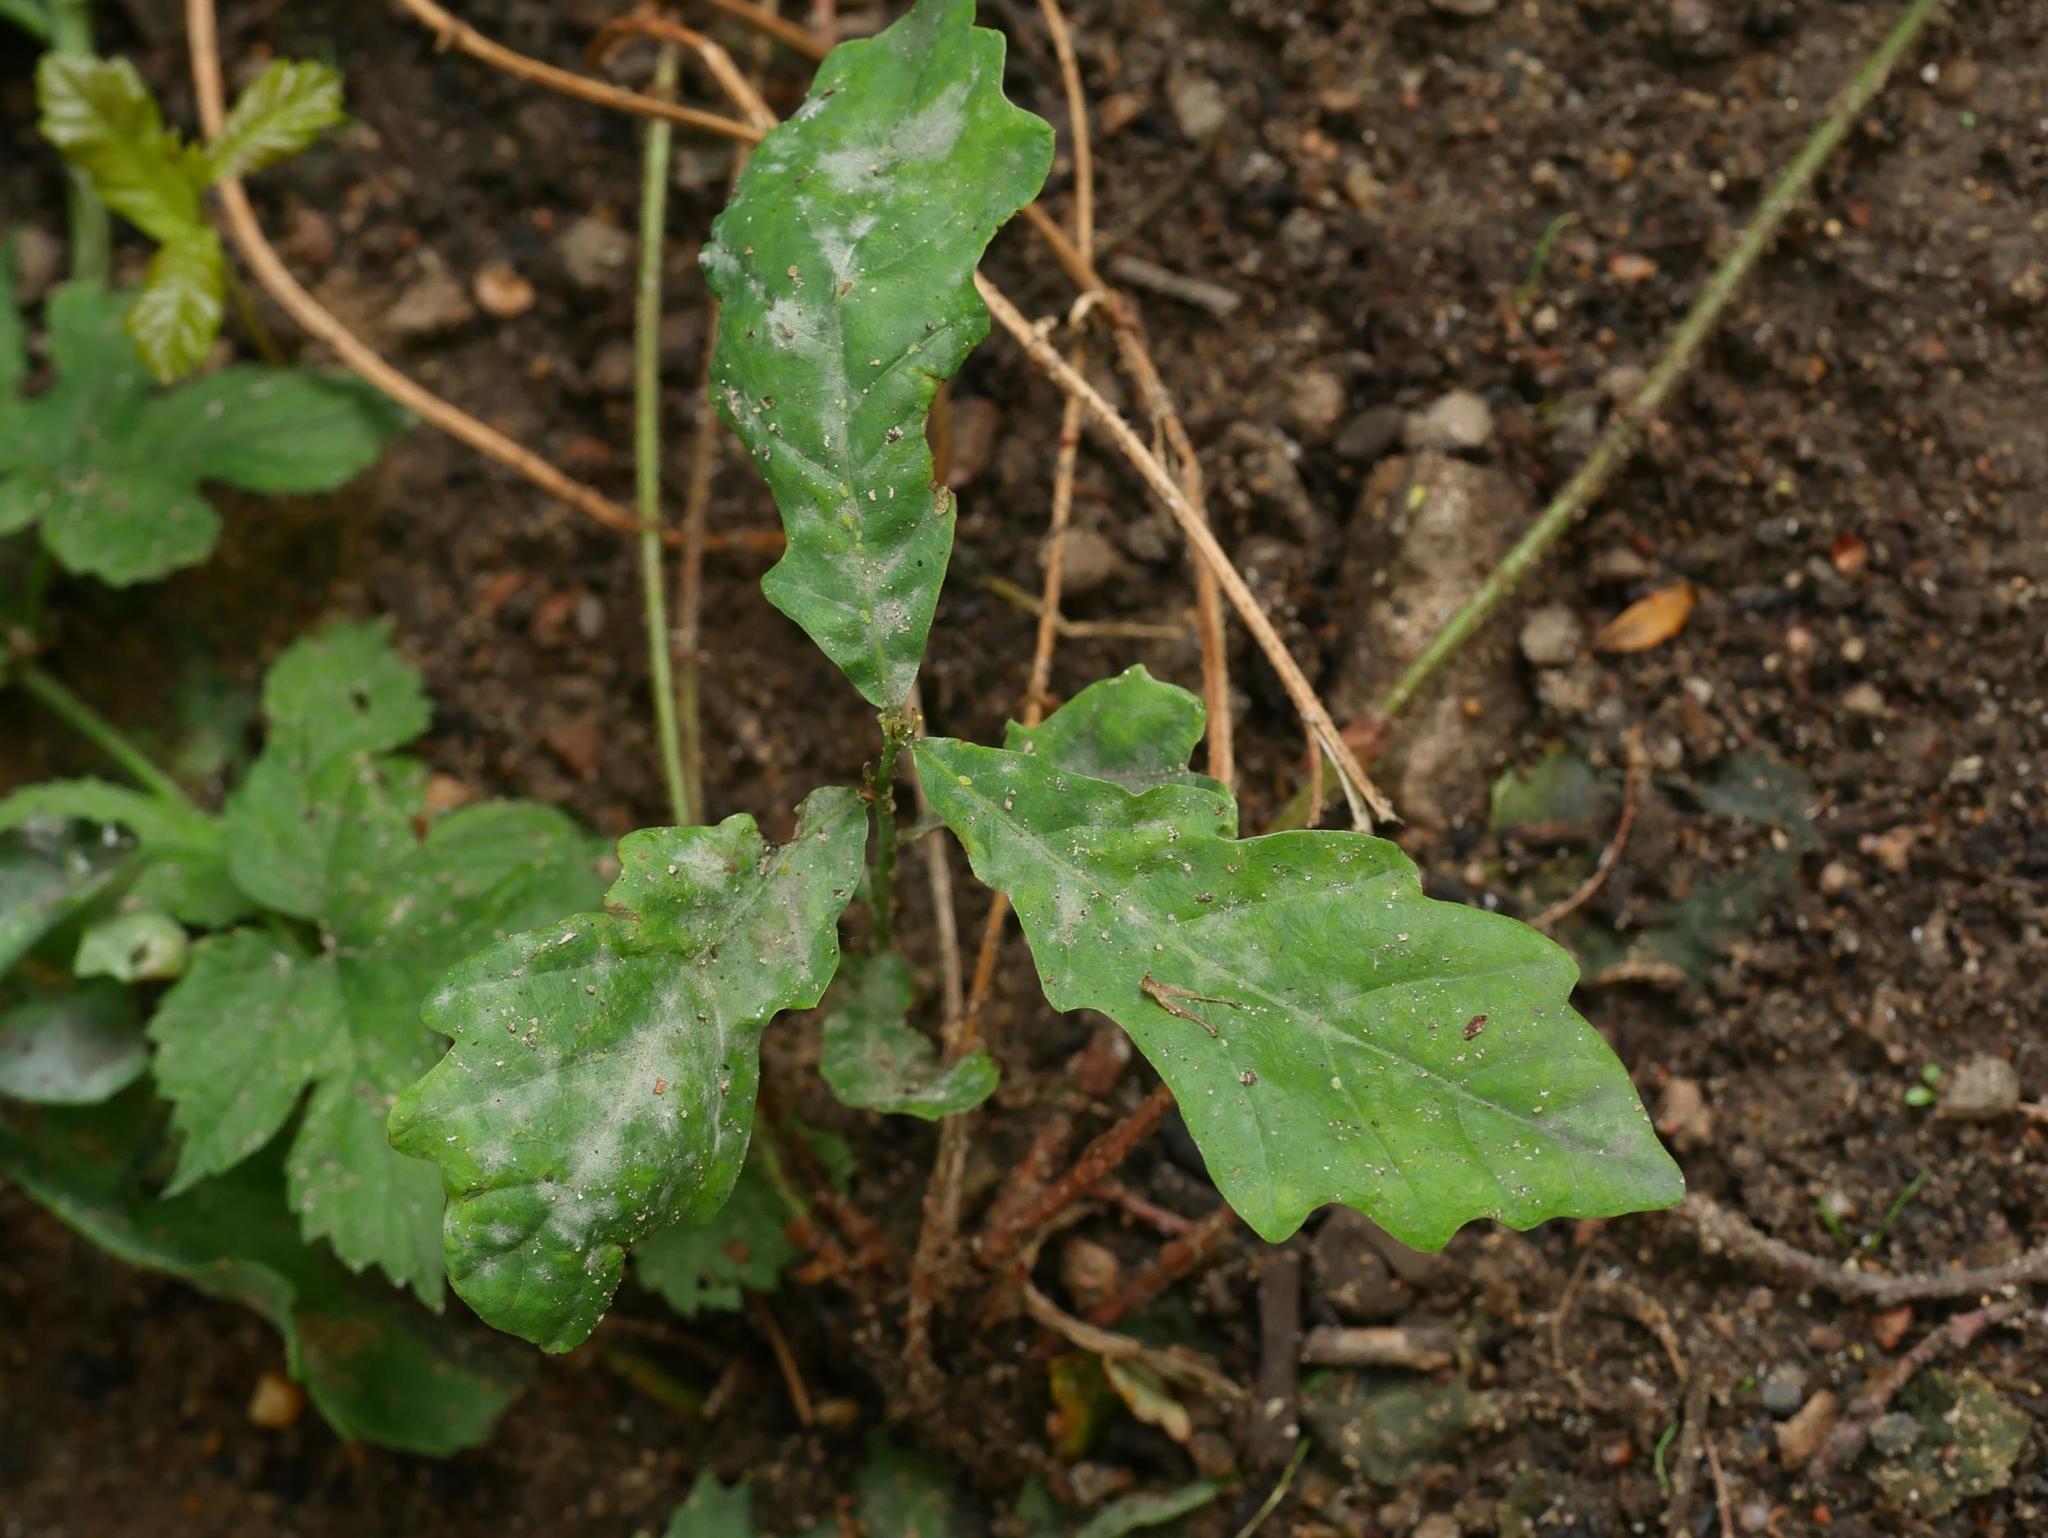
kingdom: Plantae
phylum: Tracheophyta
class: Magnoliopsida
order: Fagales
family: Fagaceae
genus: Quercus
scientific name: Quercus robur
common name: Pedunculate oak
